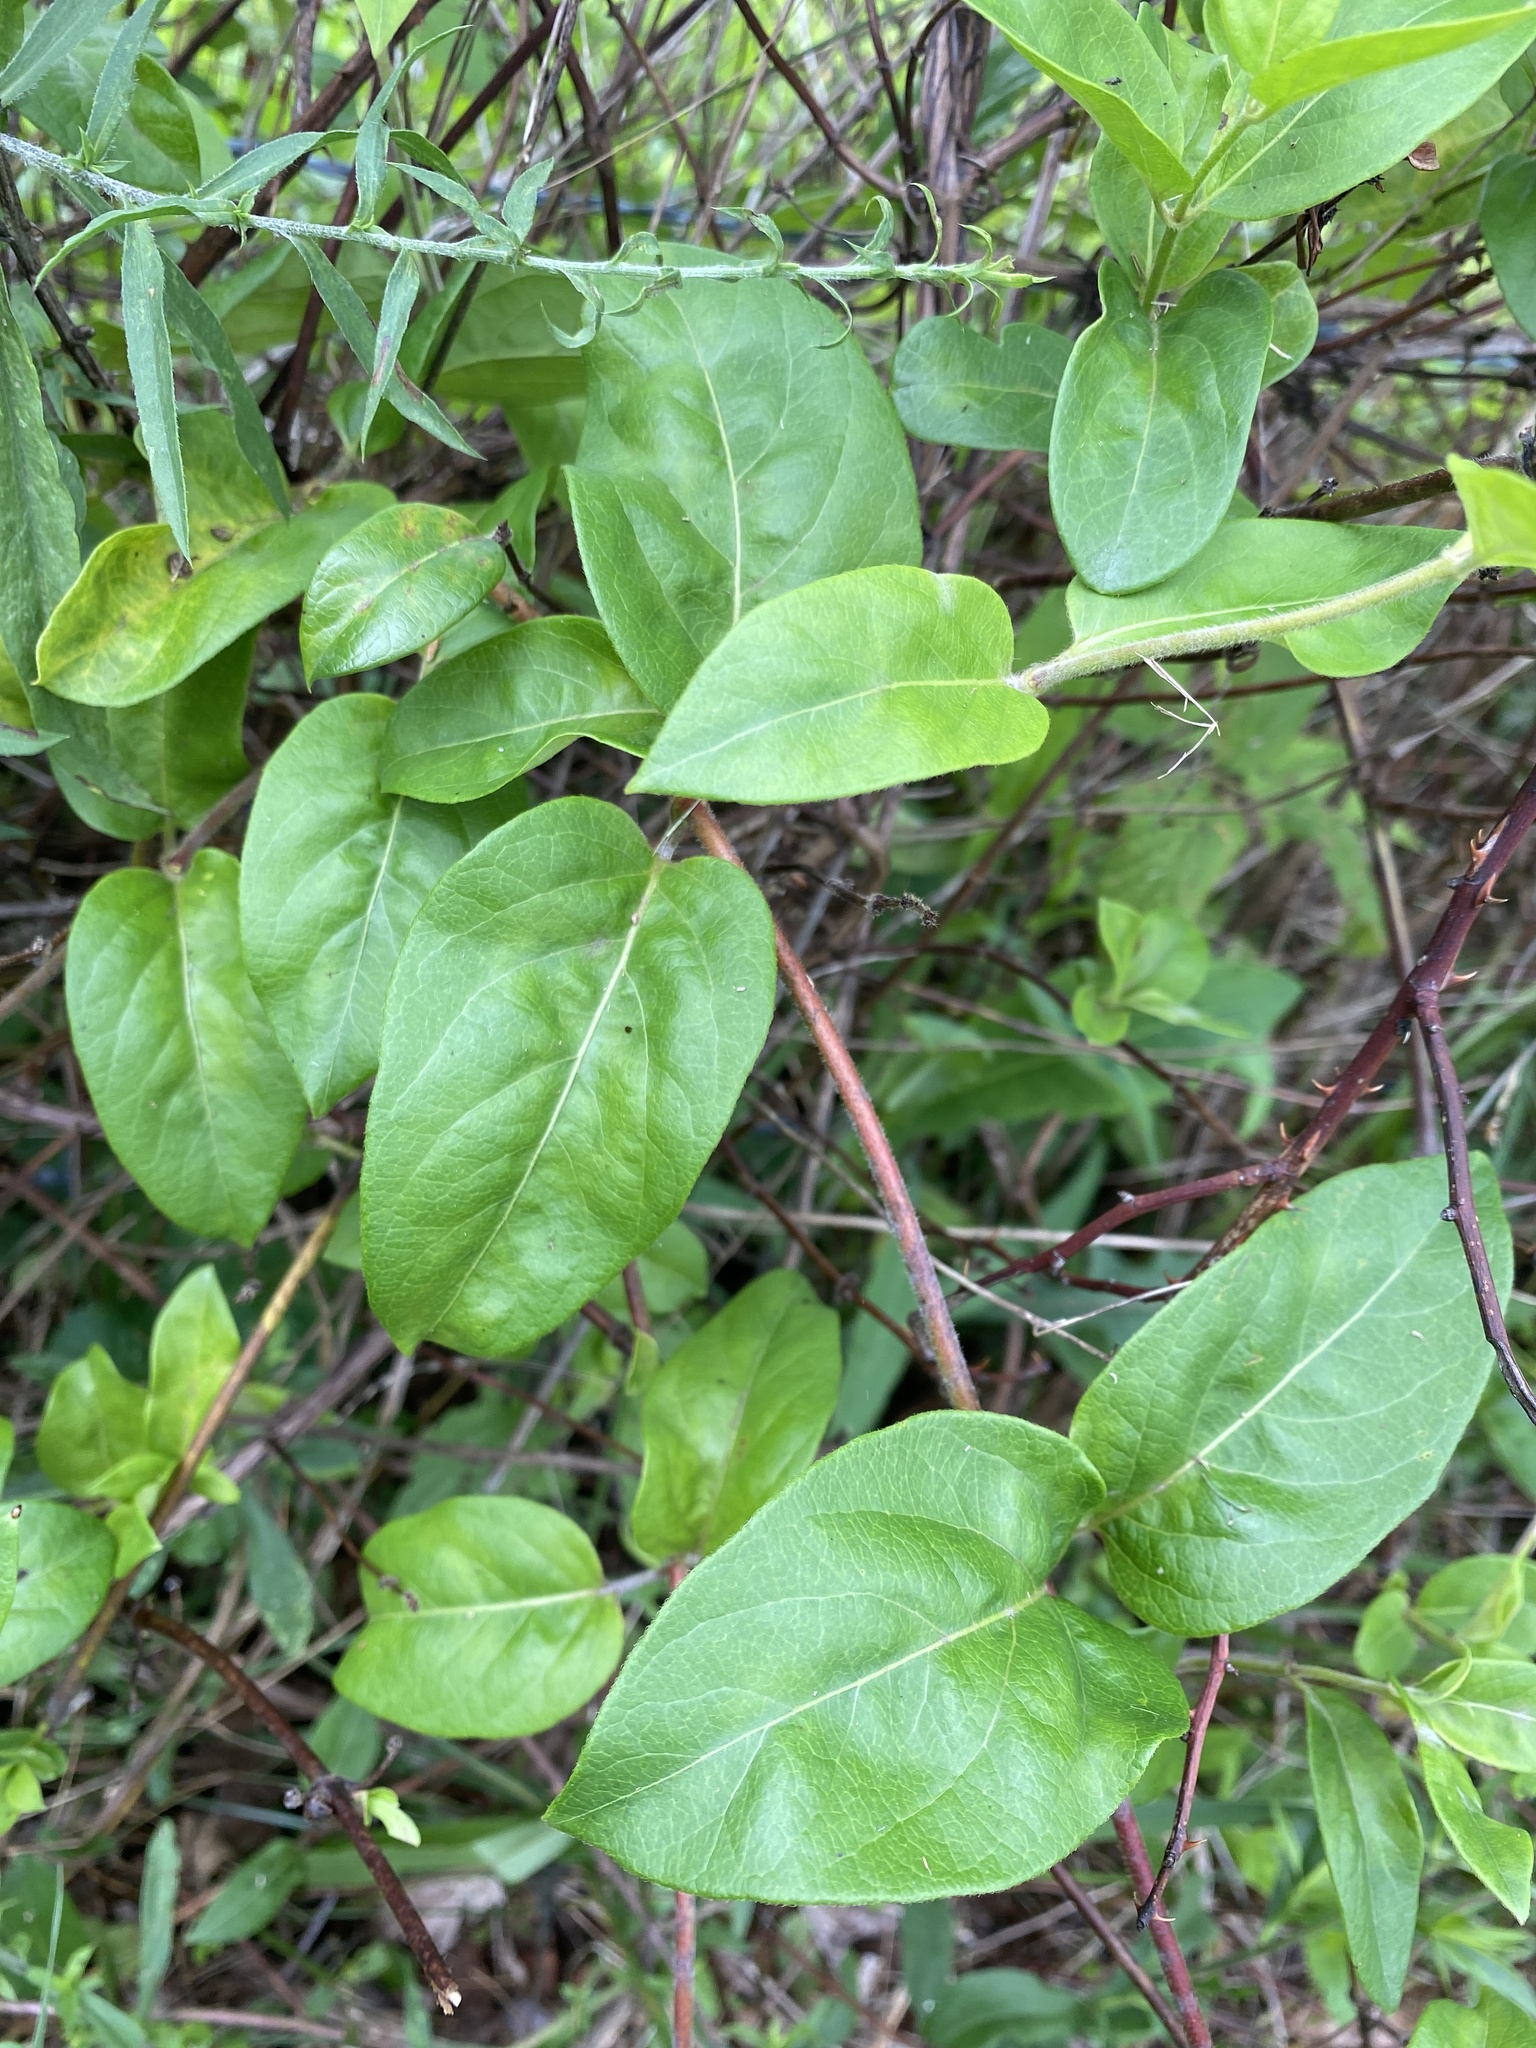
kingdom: Plantae
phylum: Tracheophyta
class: Magnoliopsida
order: Dipsacales
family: Caprifoliaceae
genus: Lonicera
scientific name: Lonicera japonica
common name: Japanese honeysuckle
